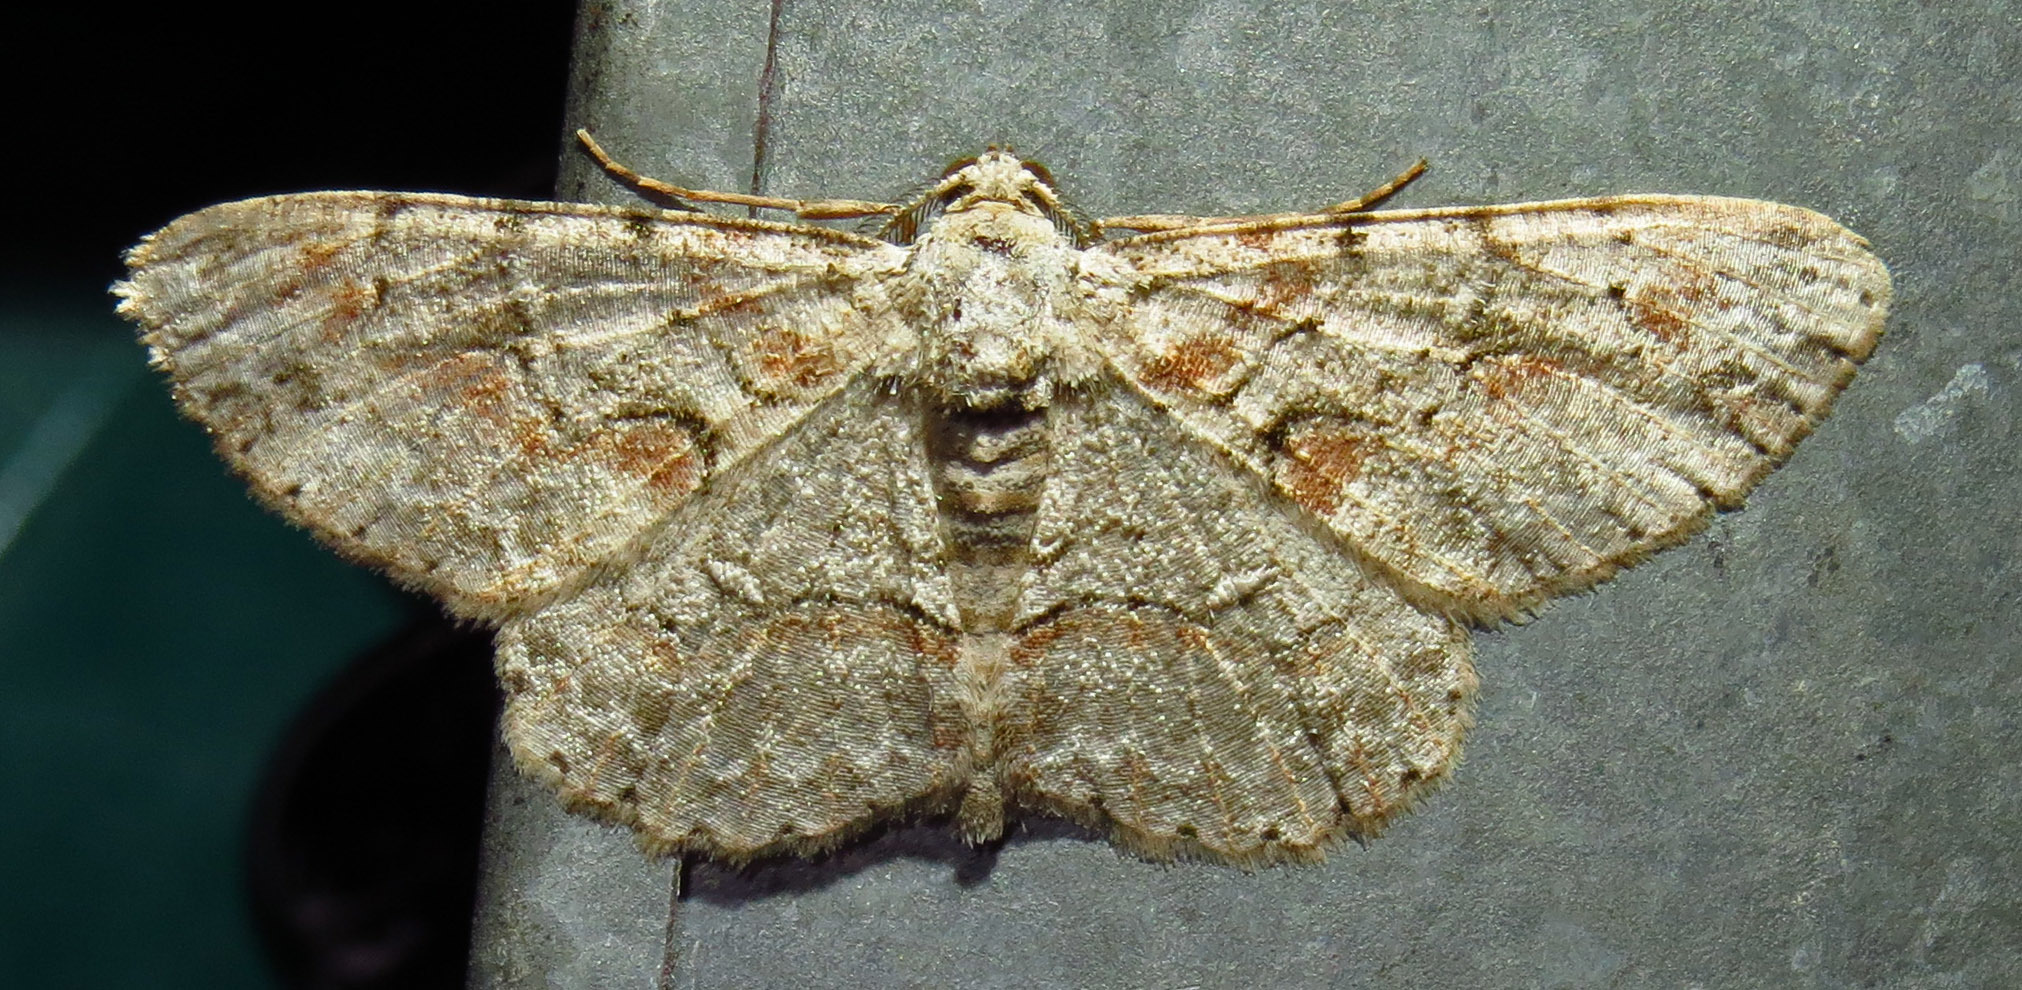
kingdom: Animalia
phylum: Arthropoda
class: Insecta
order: Lepidoptera
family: Geometridae
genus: Iridopsis
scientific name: Iridopsis defectaria
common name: Brown-shaded gray
